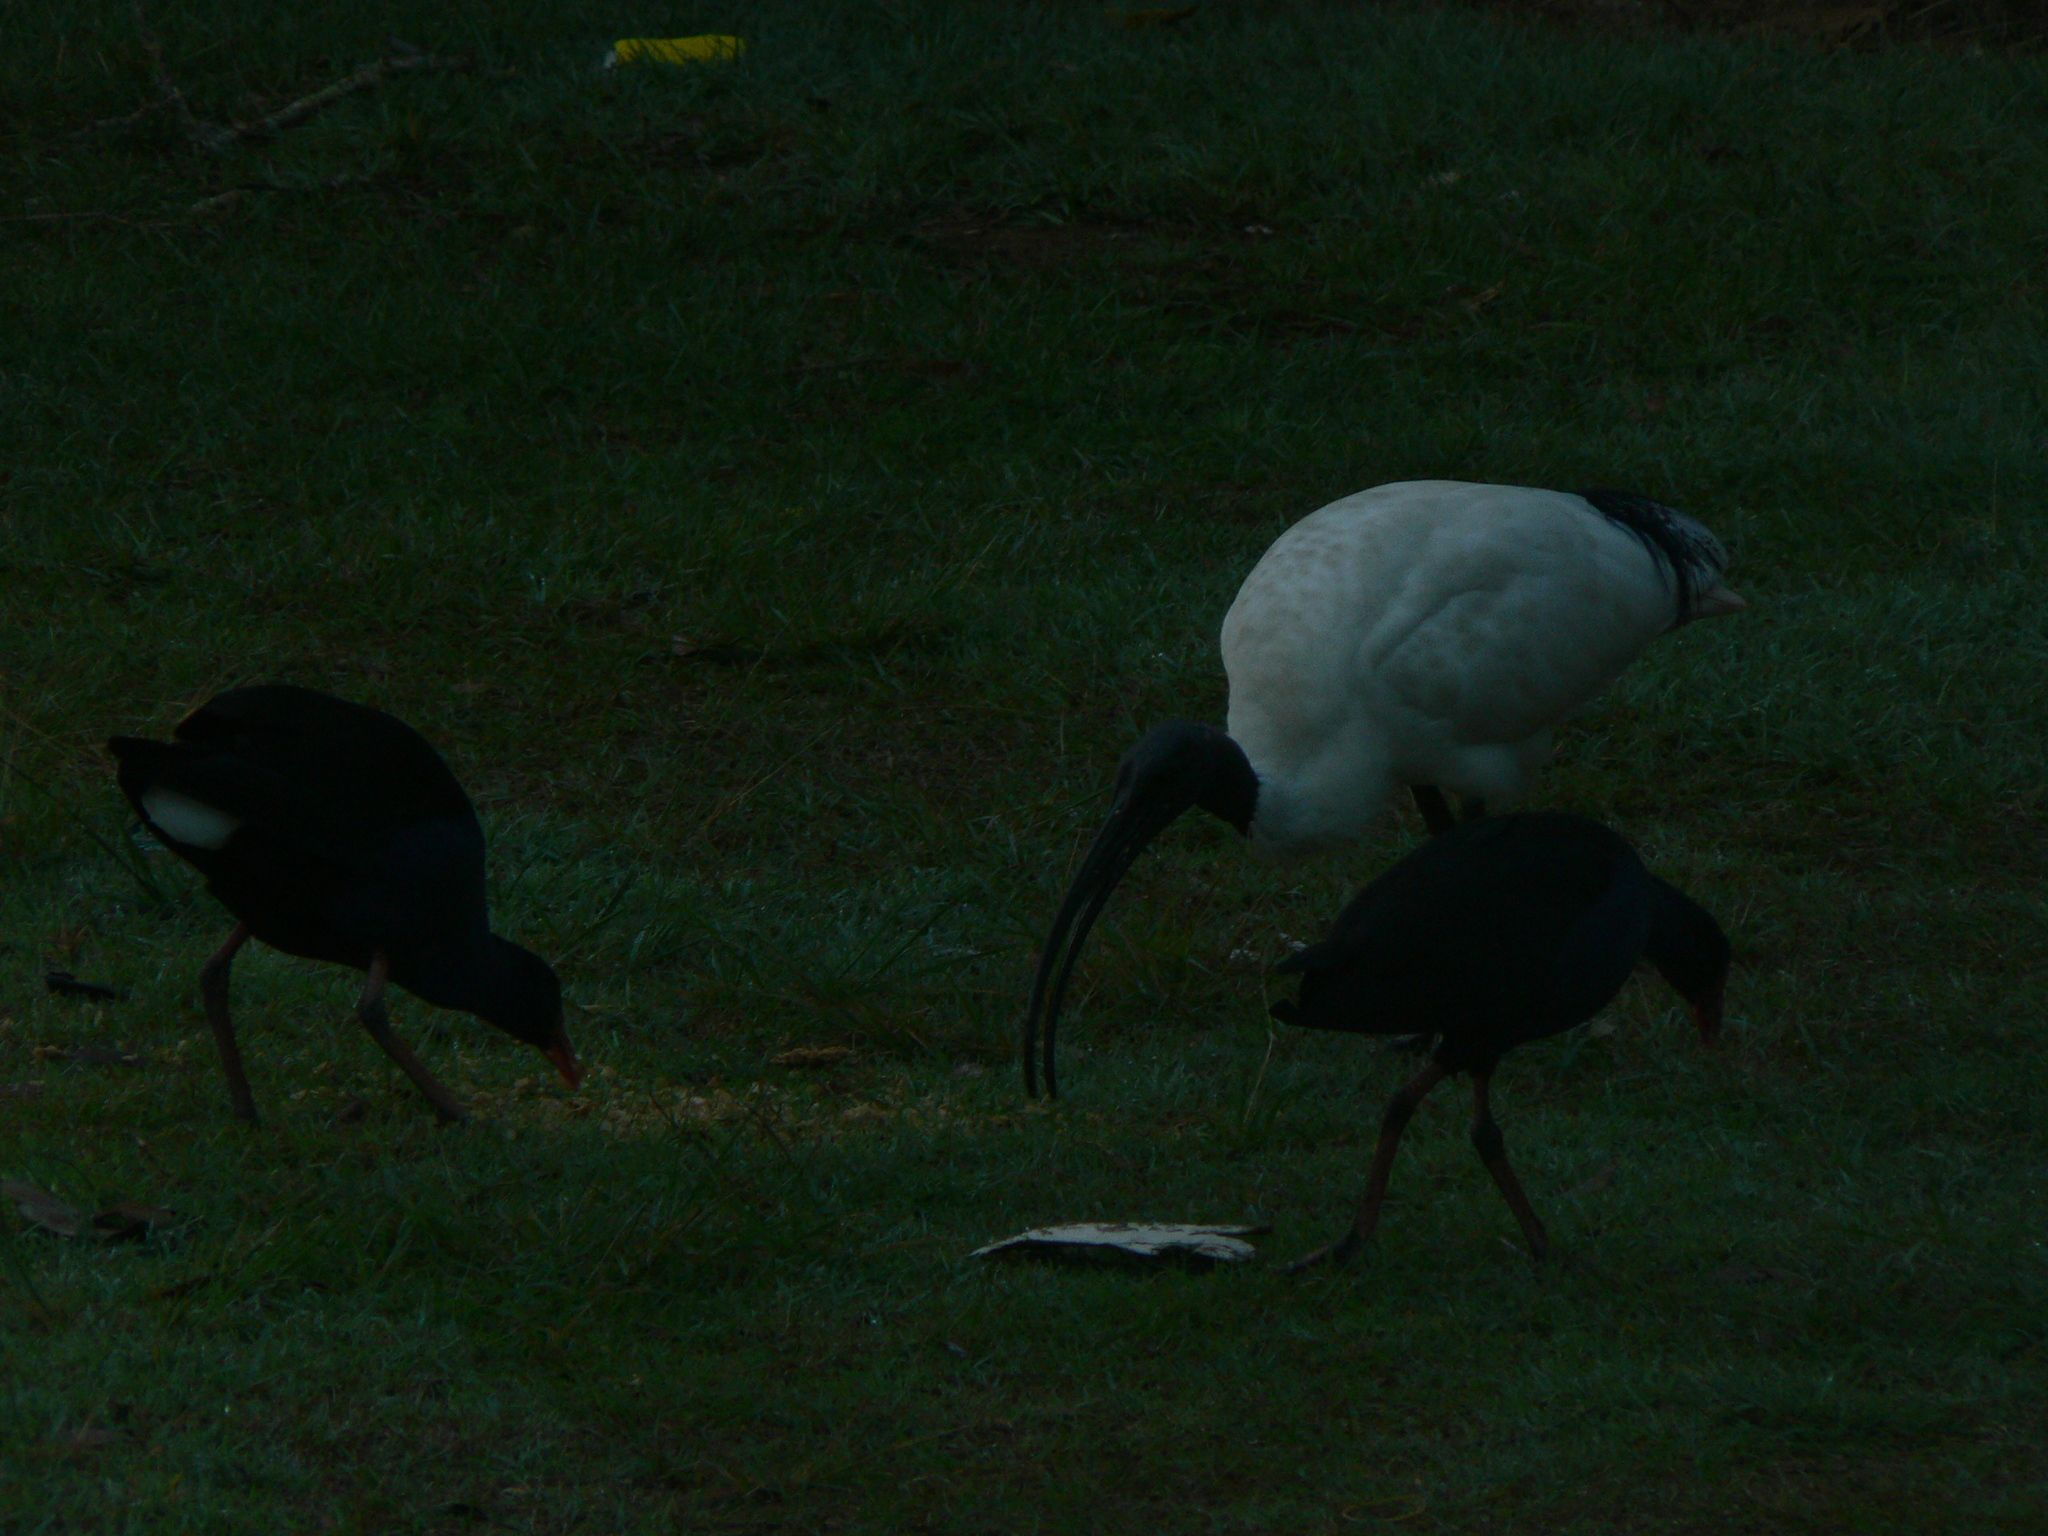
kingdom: Animalia
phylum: Chordata
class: Aves
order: Gruiformes
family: Rallidae
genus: Porphyrio
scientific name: Porphyrio melanotus
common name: Australasian swamphen
